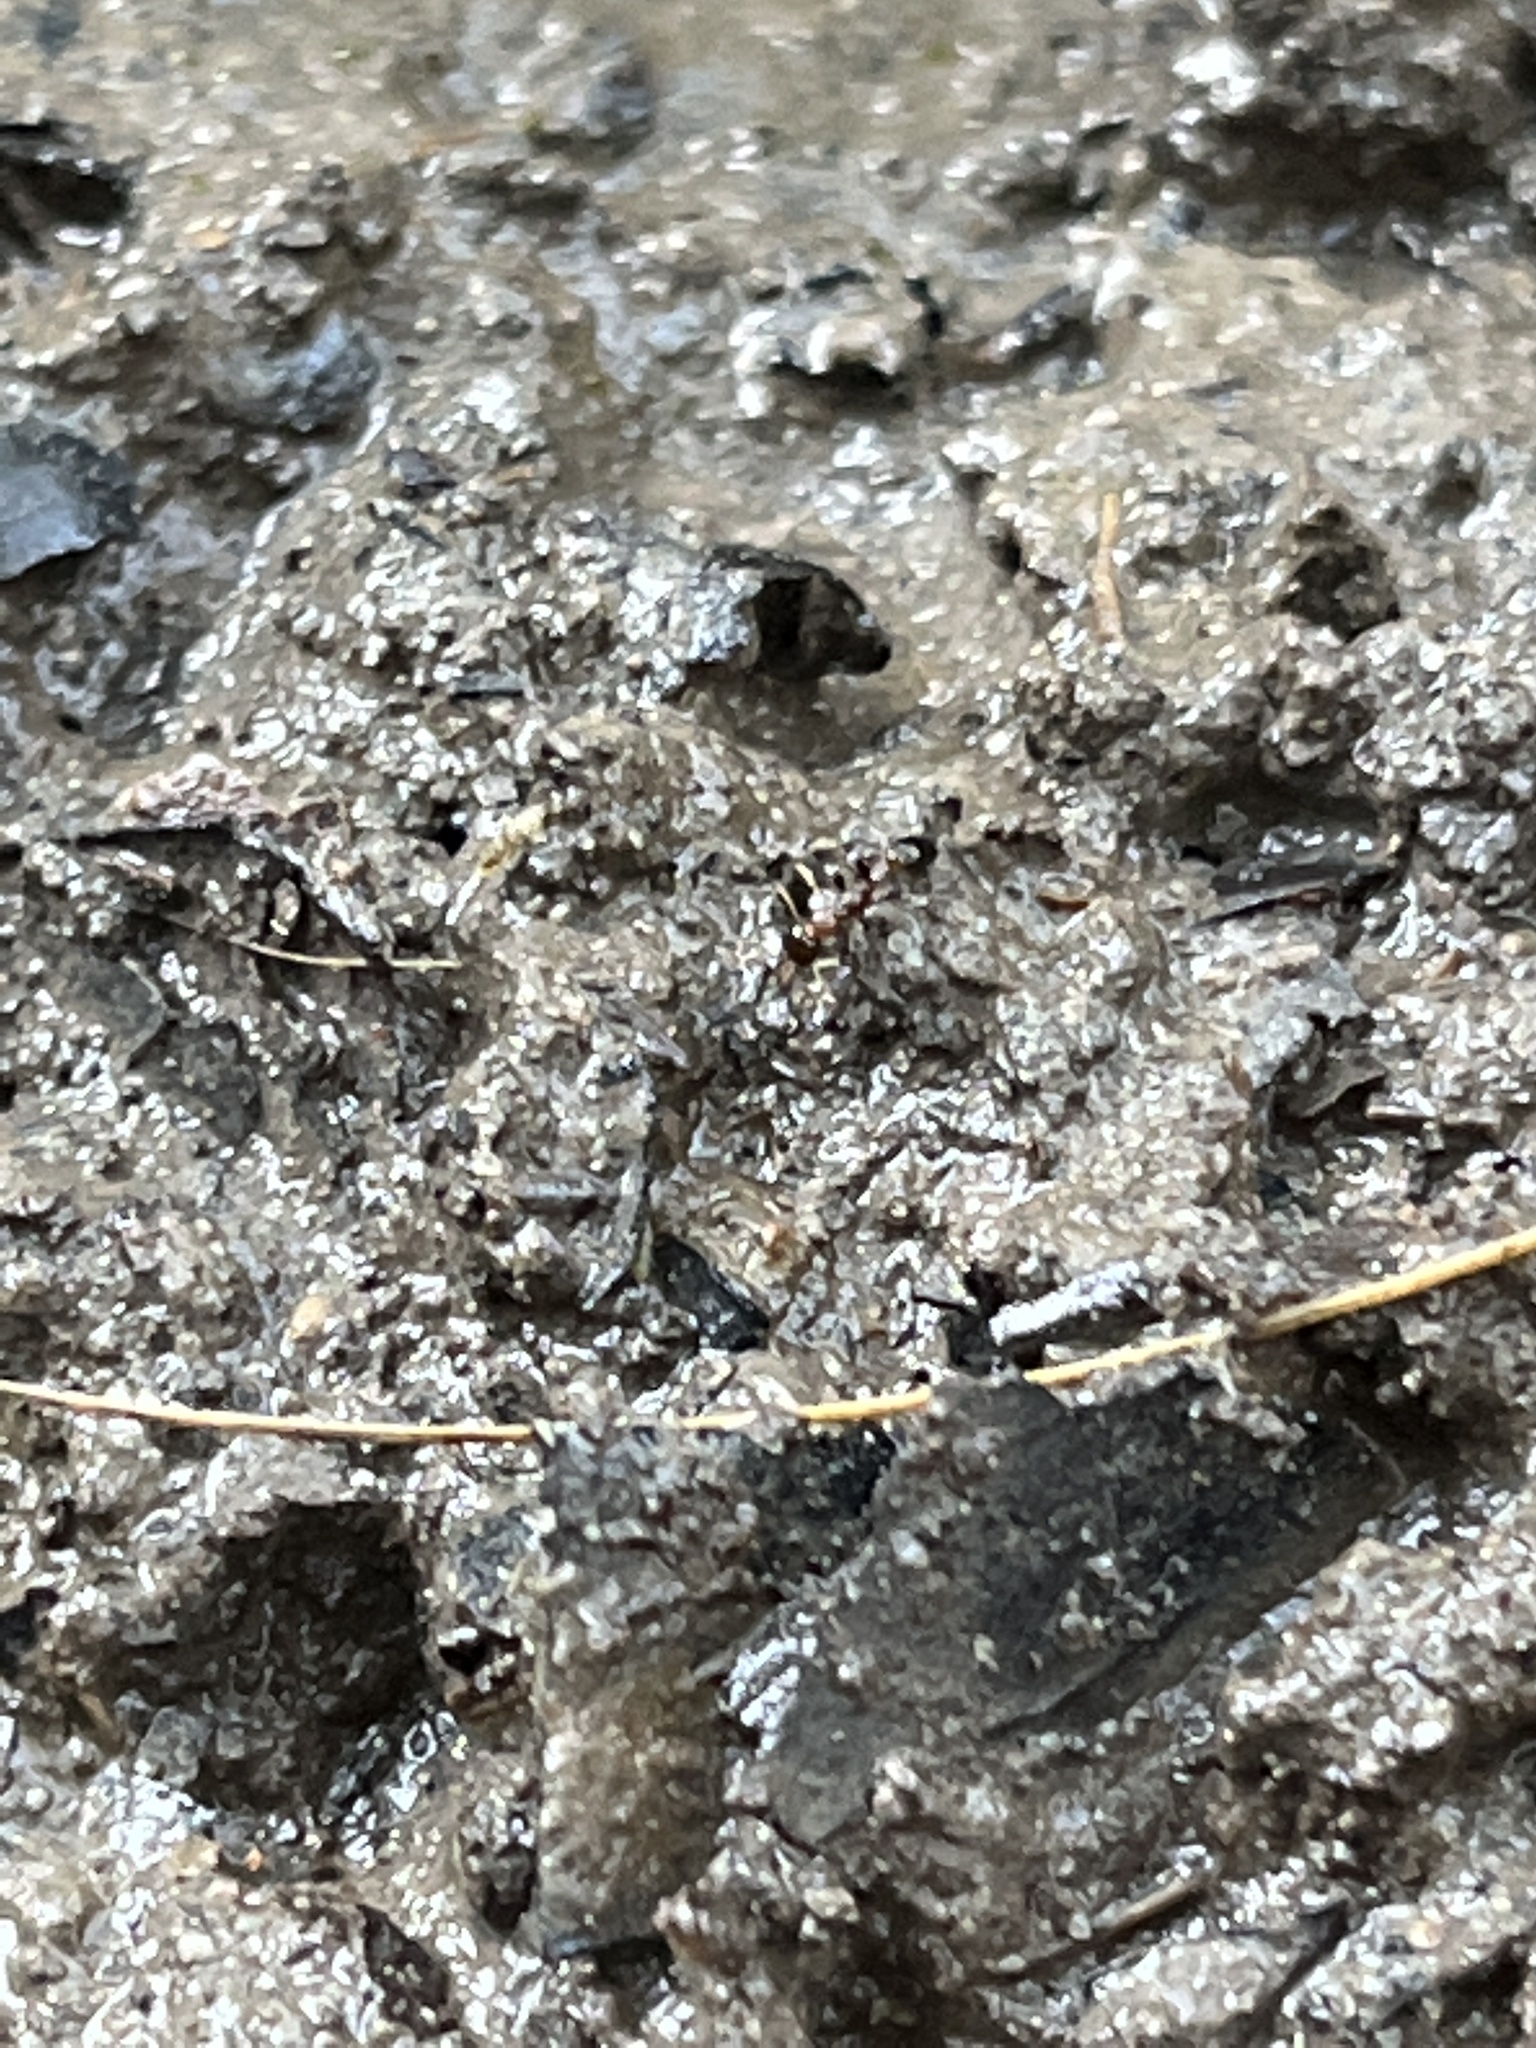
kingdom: Animalia
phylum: Arthropoda
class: Insecta
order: Hymenoptera
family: Formicidae
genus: Pseudomyrmex
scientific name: Pseudomyrmex ejectus
